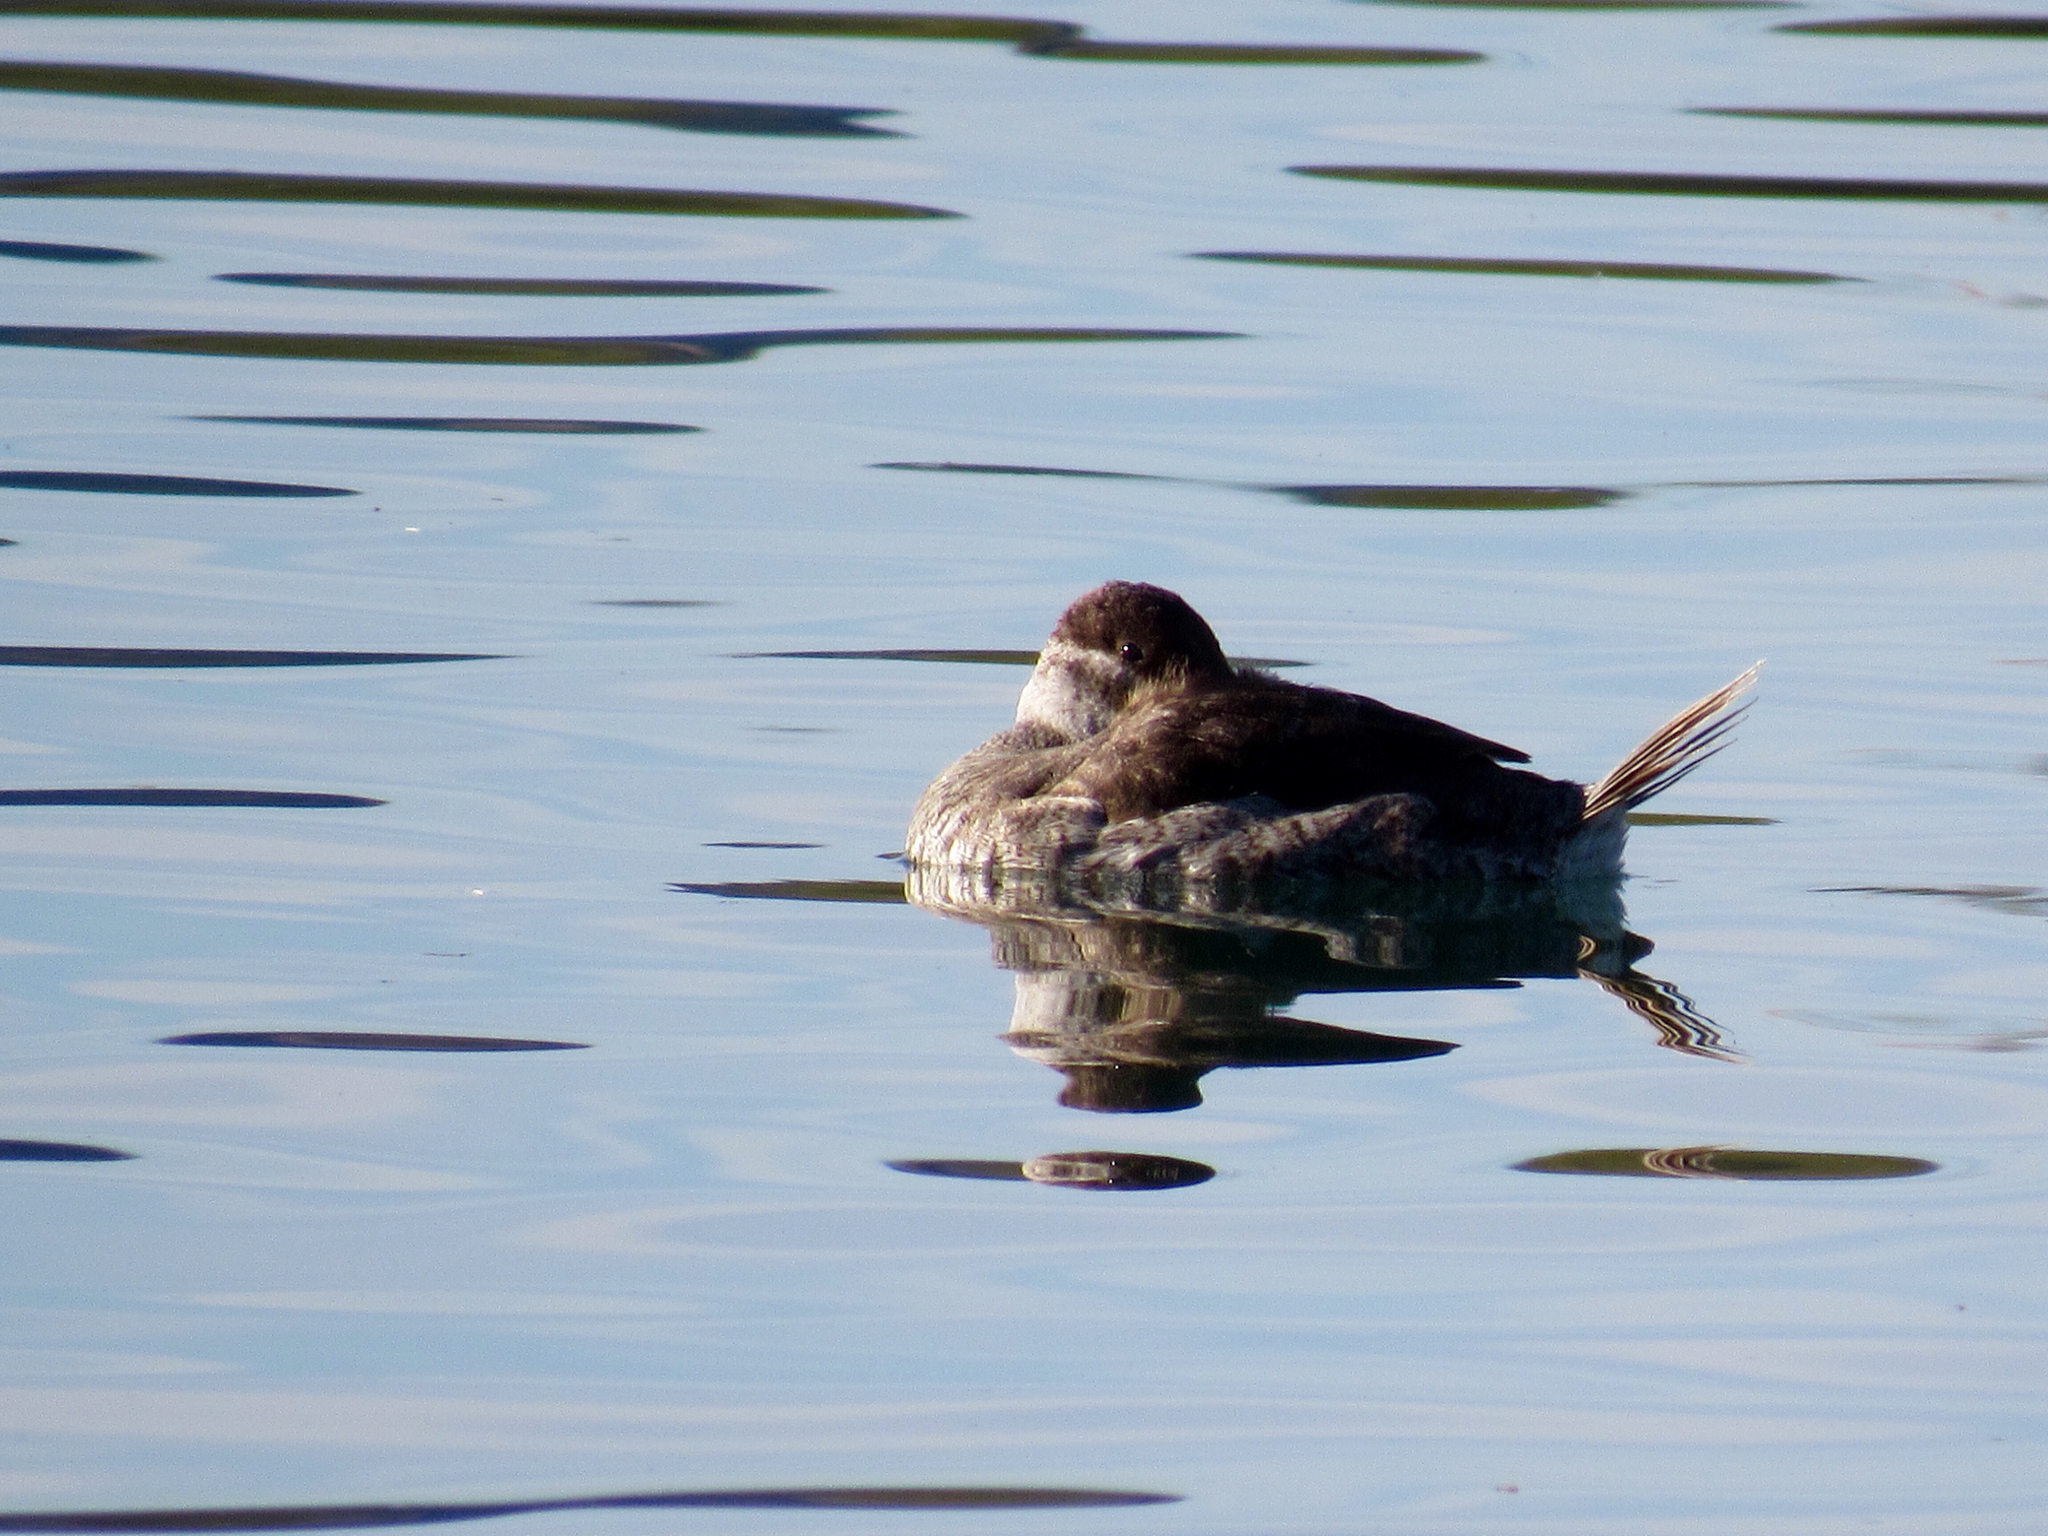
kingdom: Animalia
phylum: Chordata
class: Aves
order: Anseriformes
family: Anatidae
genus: Oxyura
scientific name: Oxyura jamaicensis
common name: Ruddy duck
